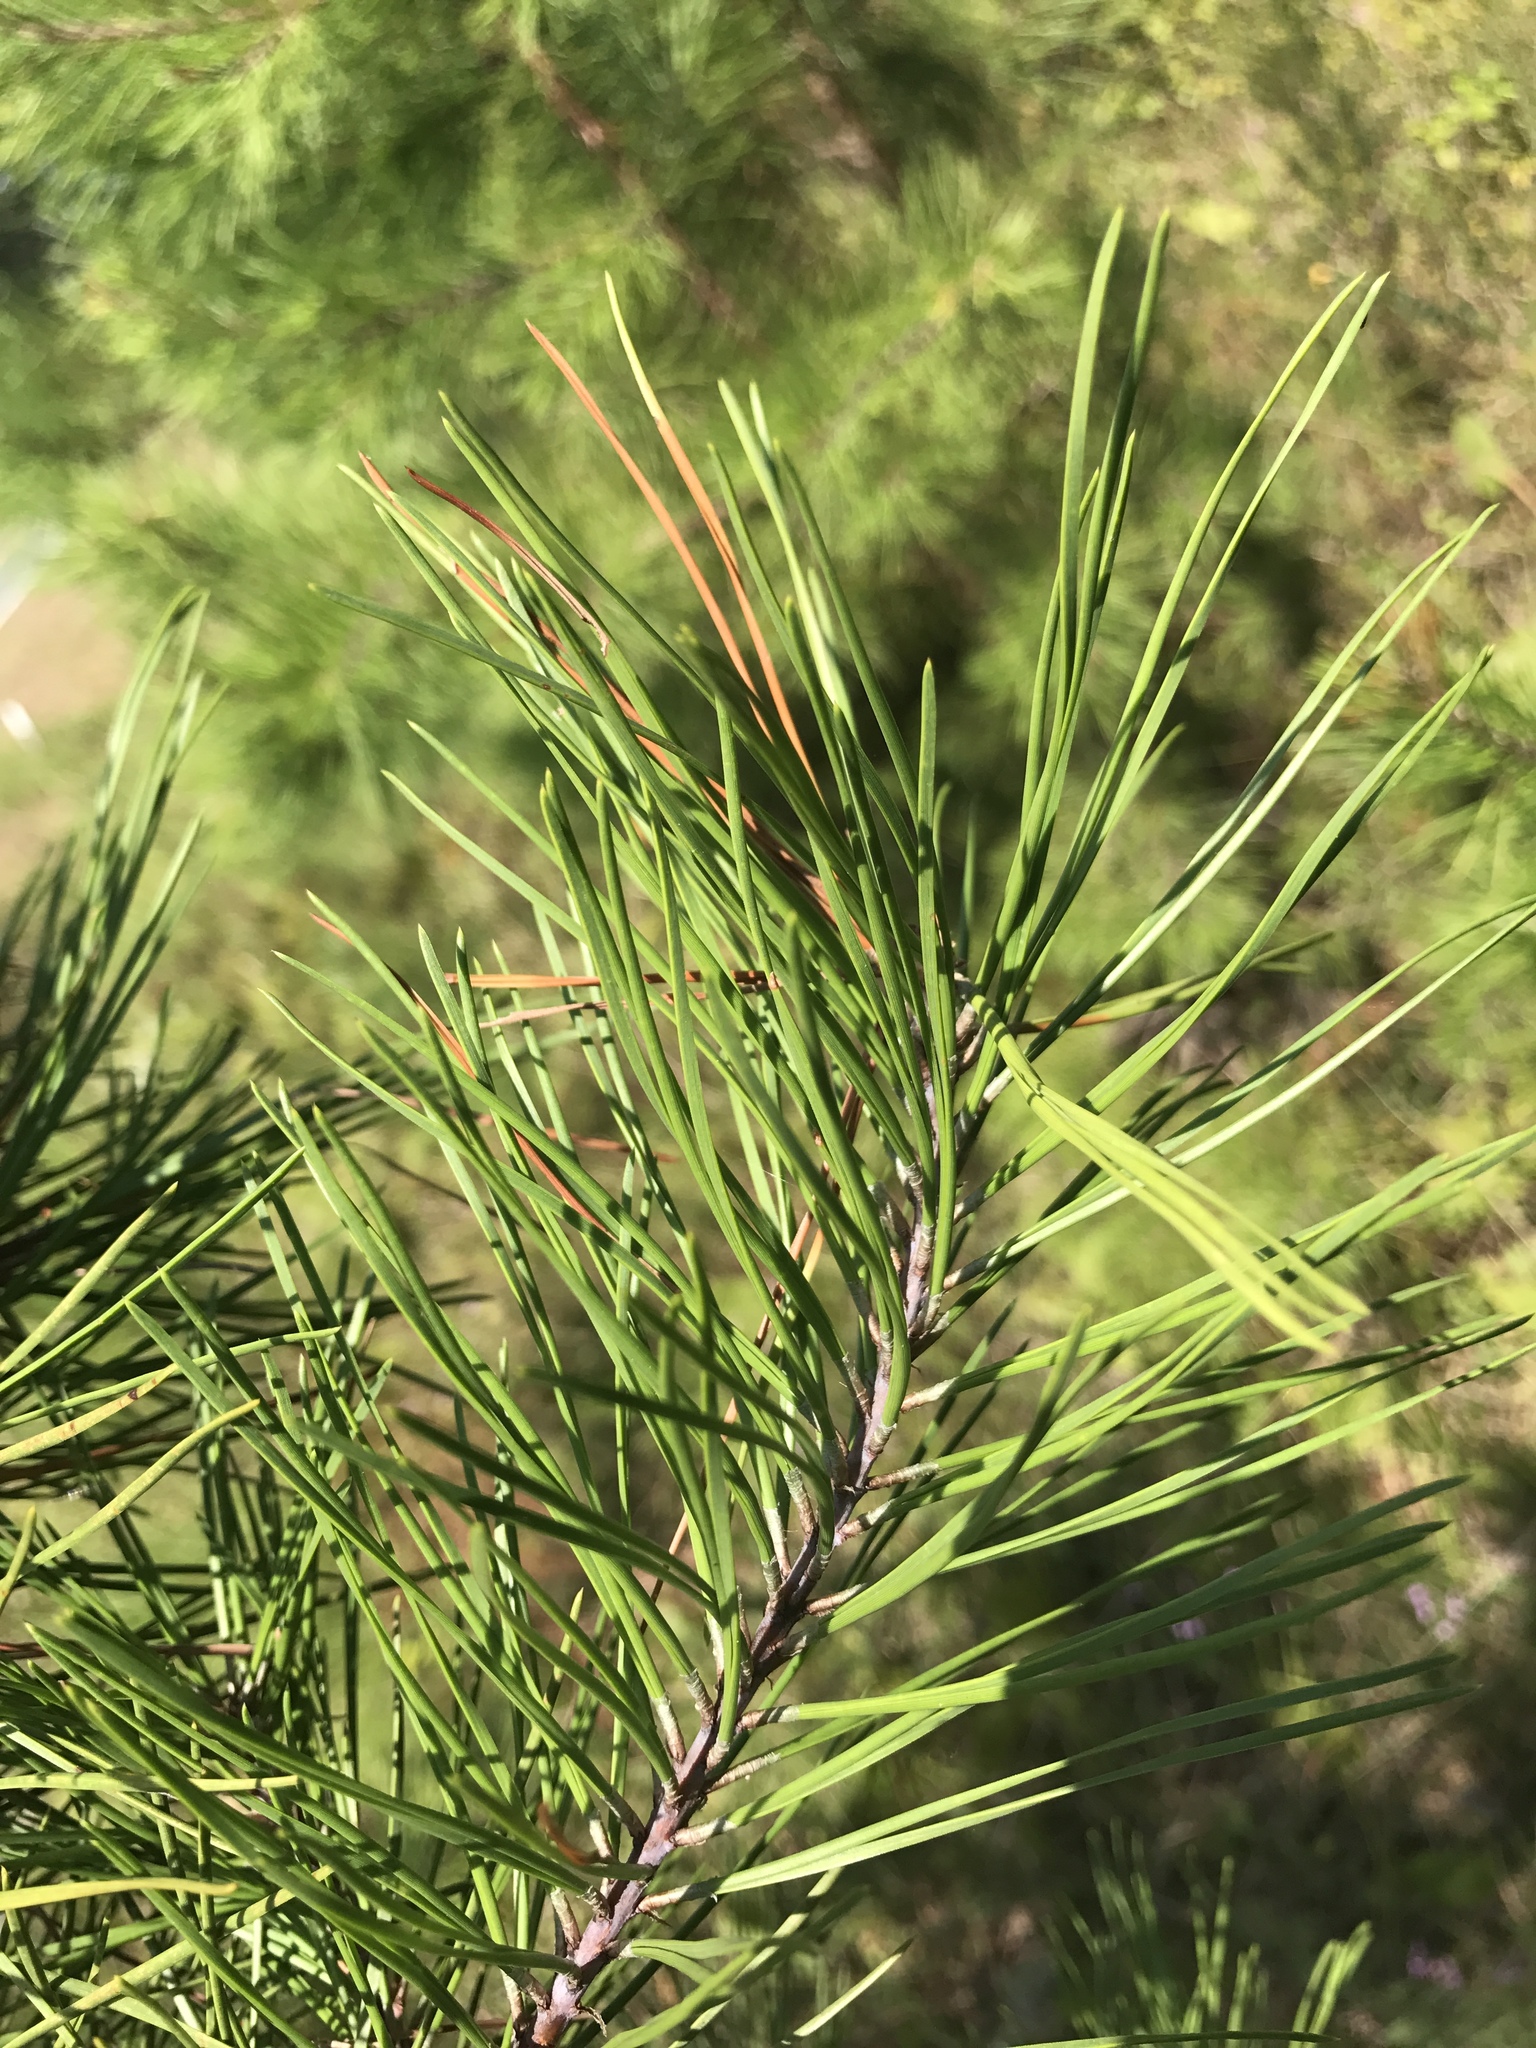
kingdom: Plantae
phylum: Tracheophyta
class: Pinopsida
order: Pinales
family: Pinaceae
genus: Pinus
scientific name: Pinus echinata
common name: Shortleaf pine
